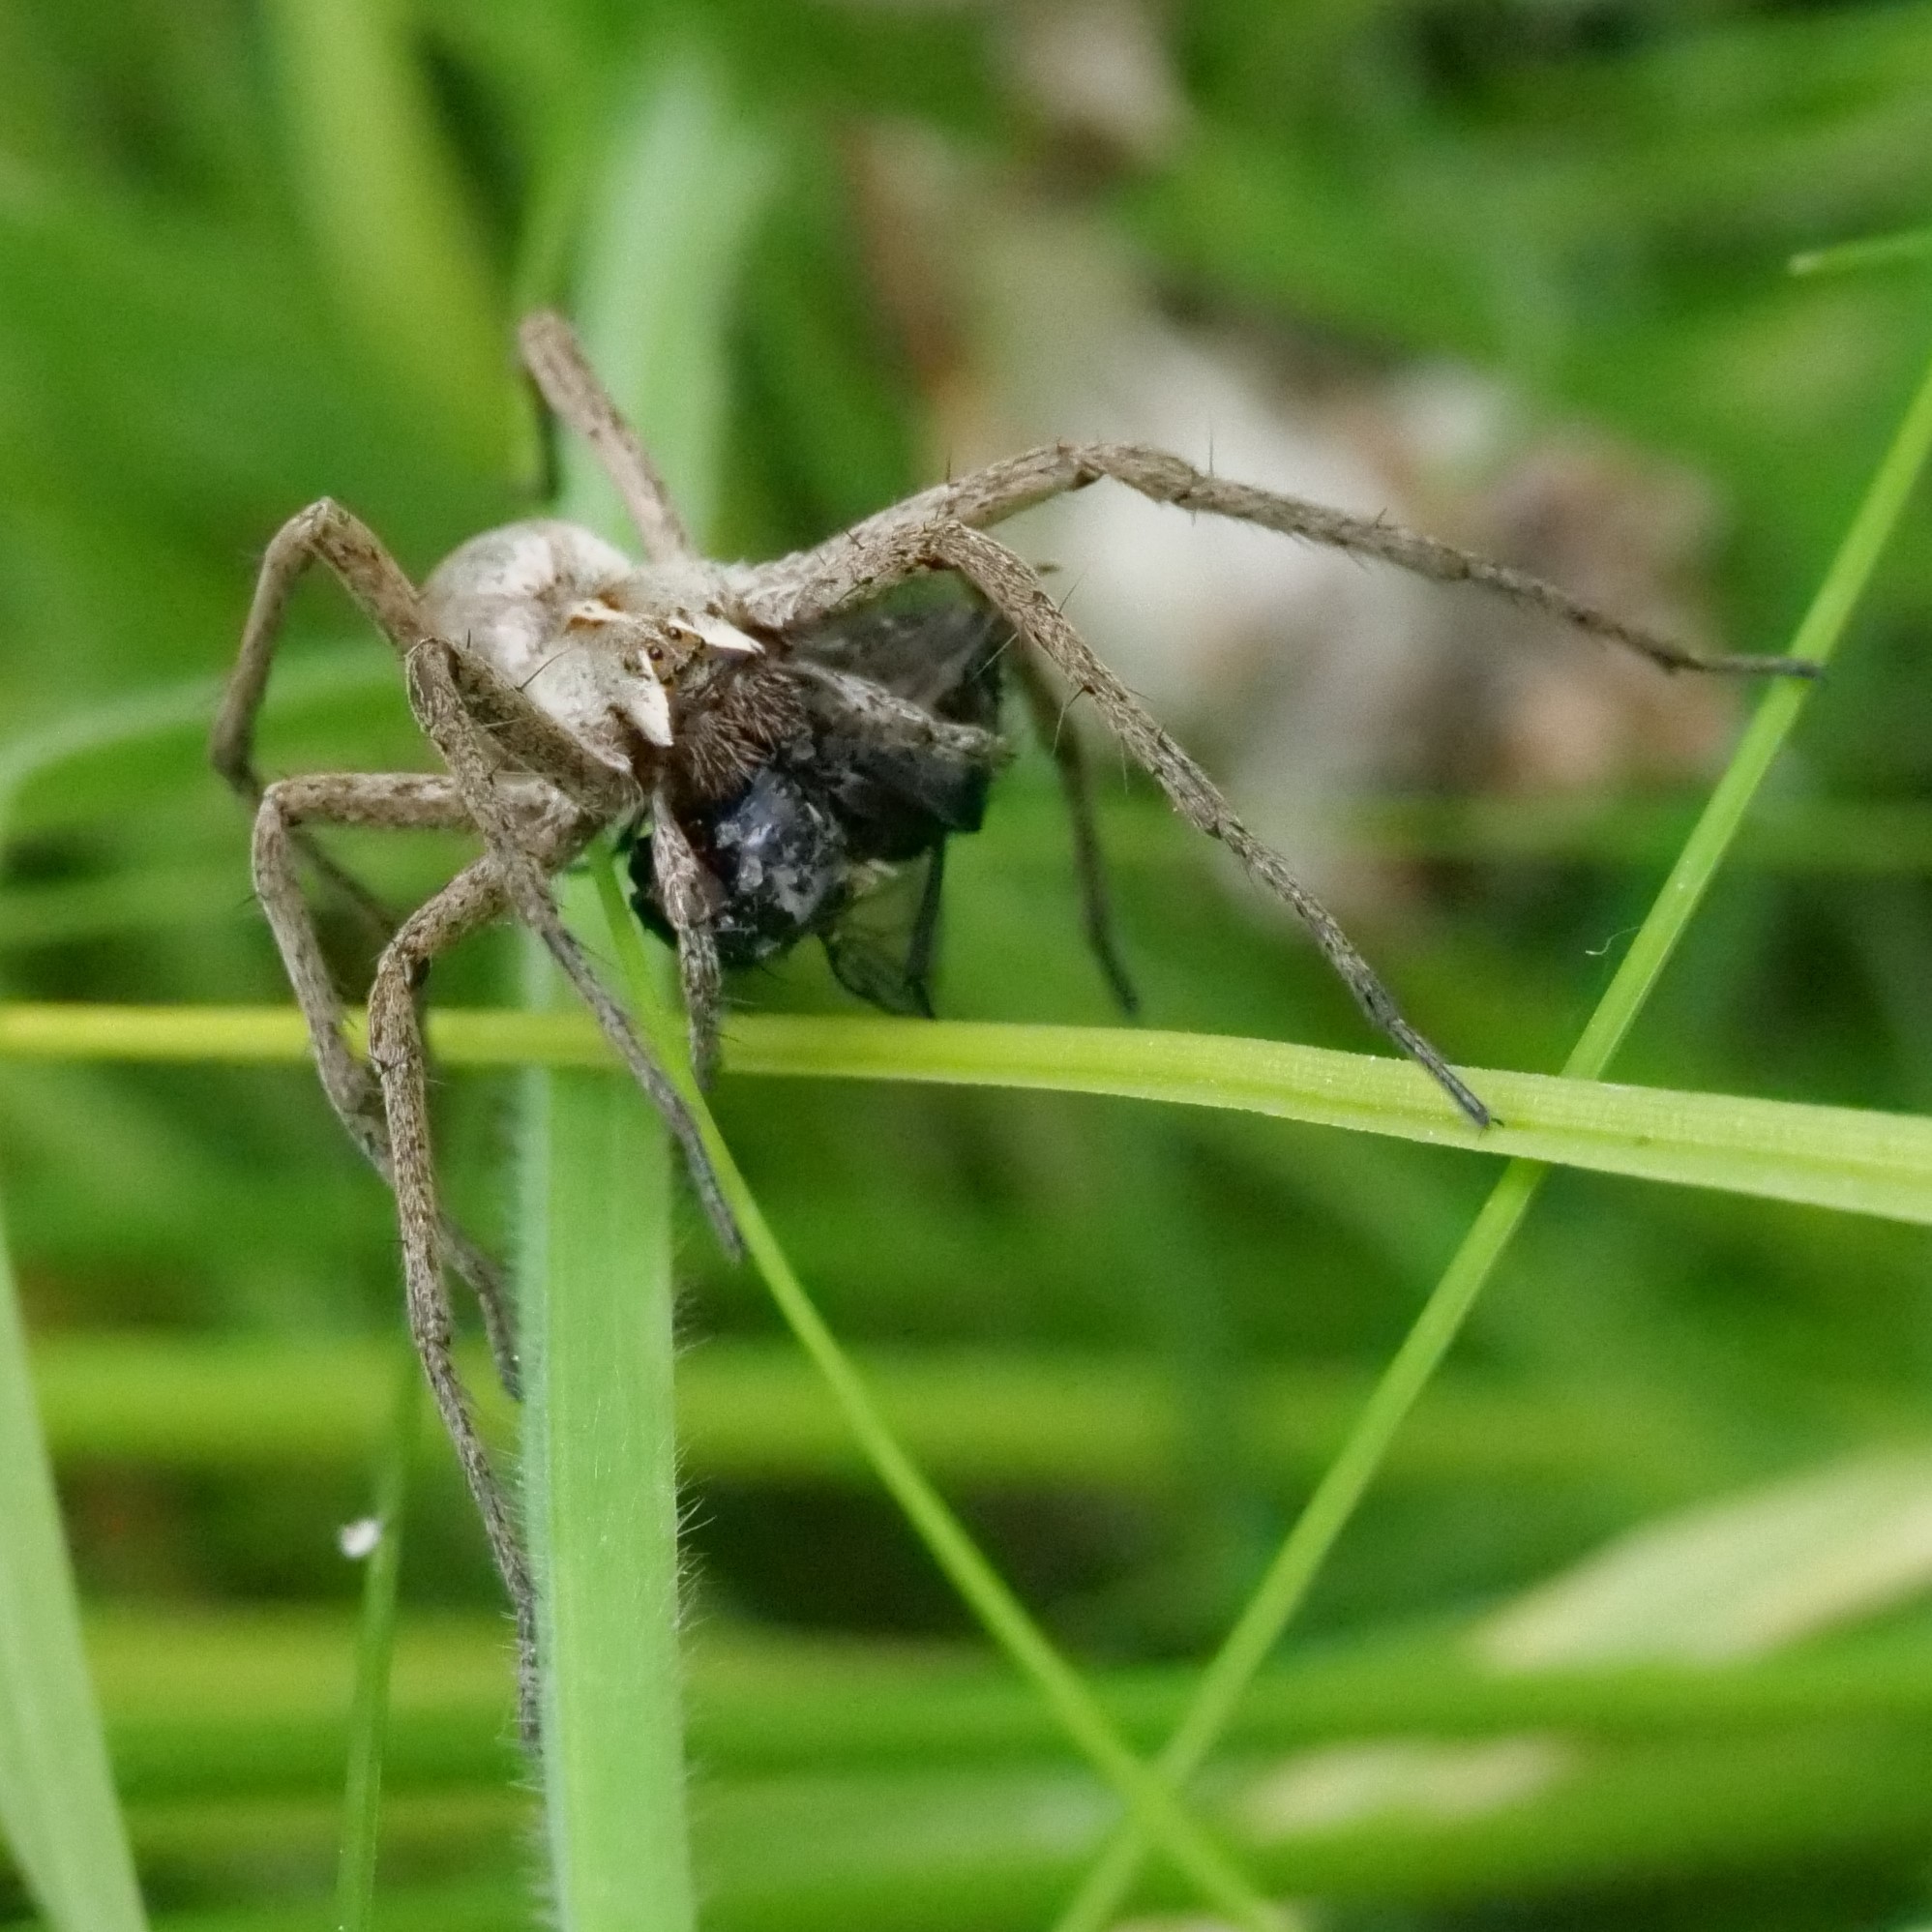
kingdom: Animalia
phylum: Arthropoda
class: Arachnida
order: Araneae
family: Pisauridae
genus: Pisaura
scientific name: Pisaura mirabilis
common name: Tent spider
